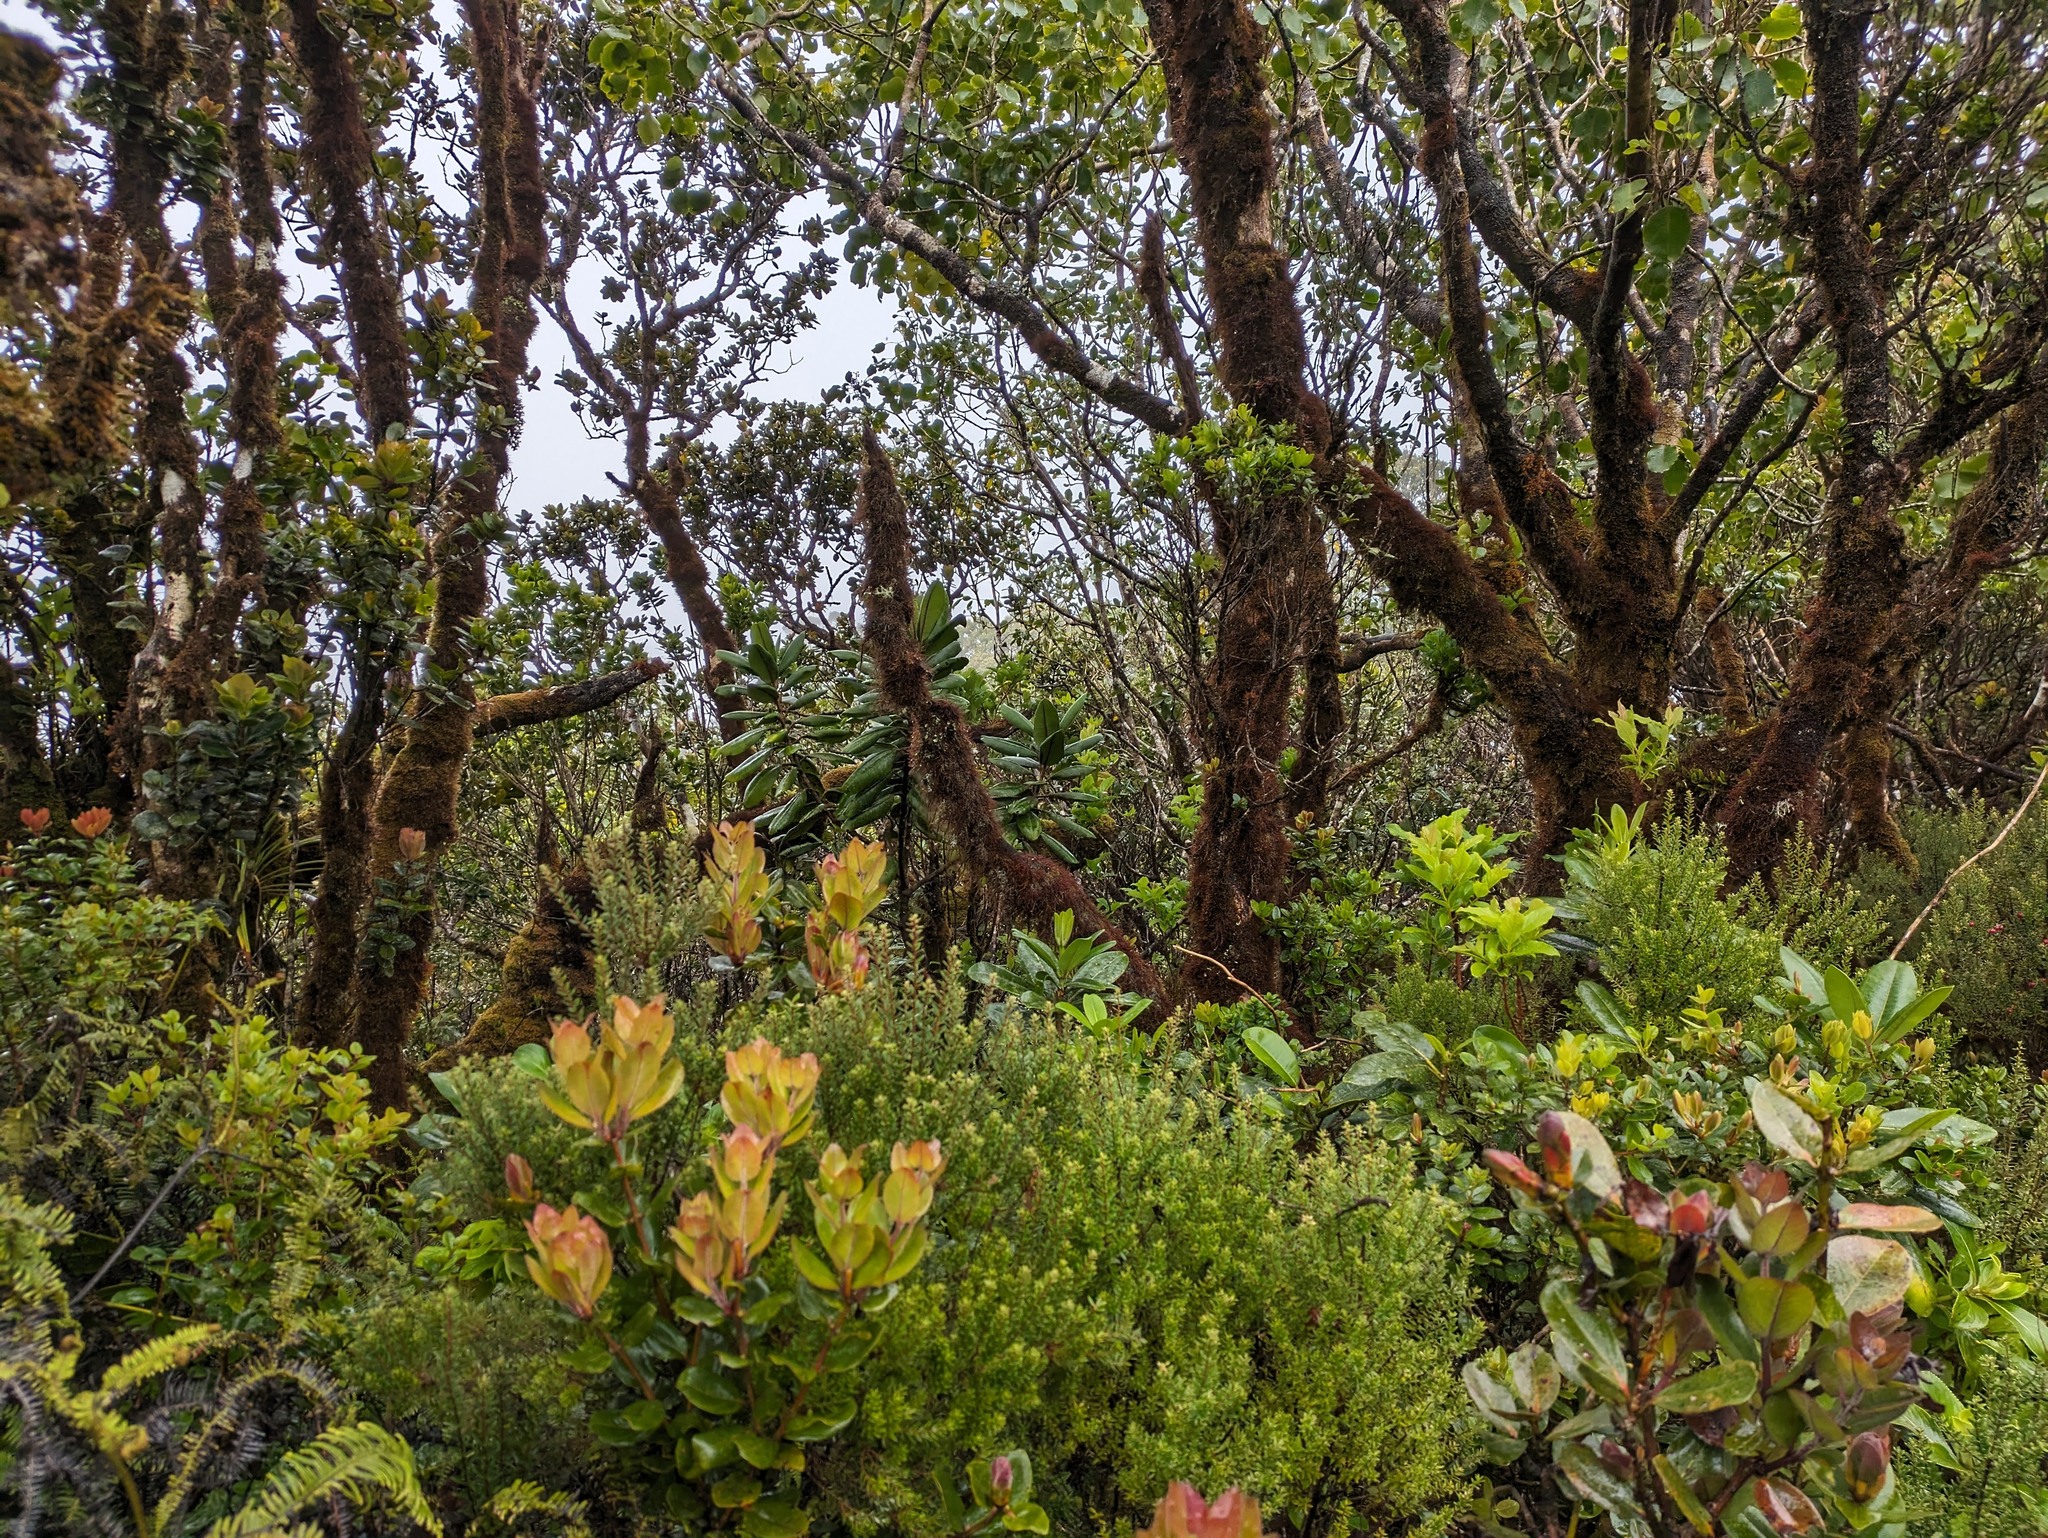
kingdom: Plantae
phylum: Tracheophyta
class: Magnoliopsida
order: Ericales
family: Ericaceae
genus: Leptecophylla
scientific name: Leptecophylla tameiameiae
